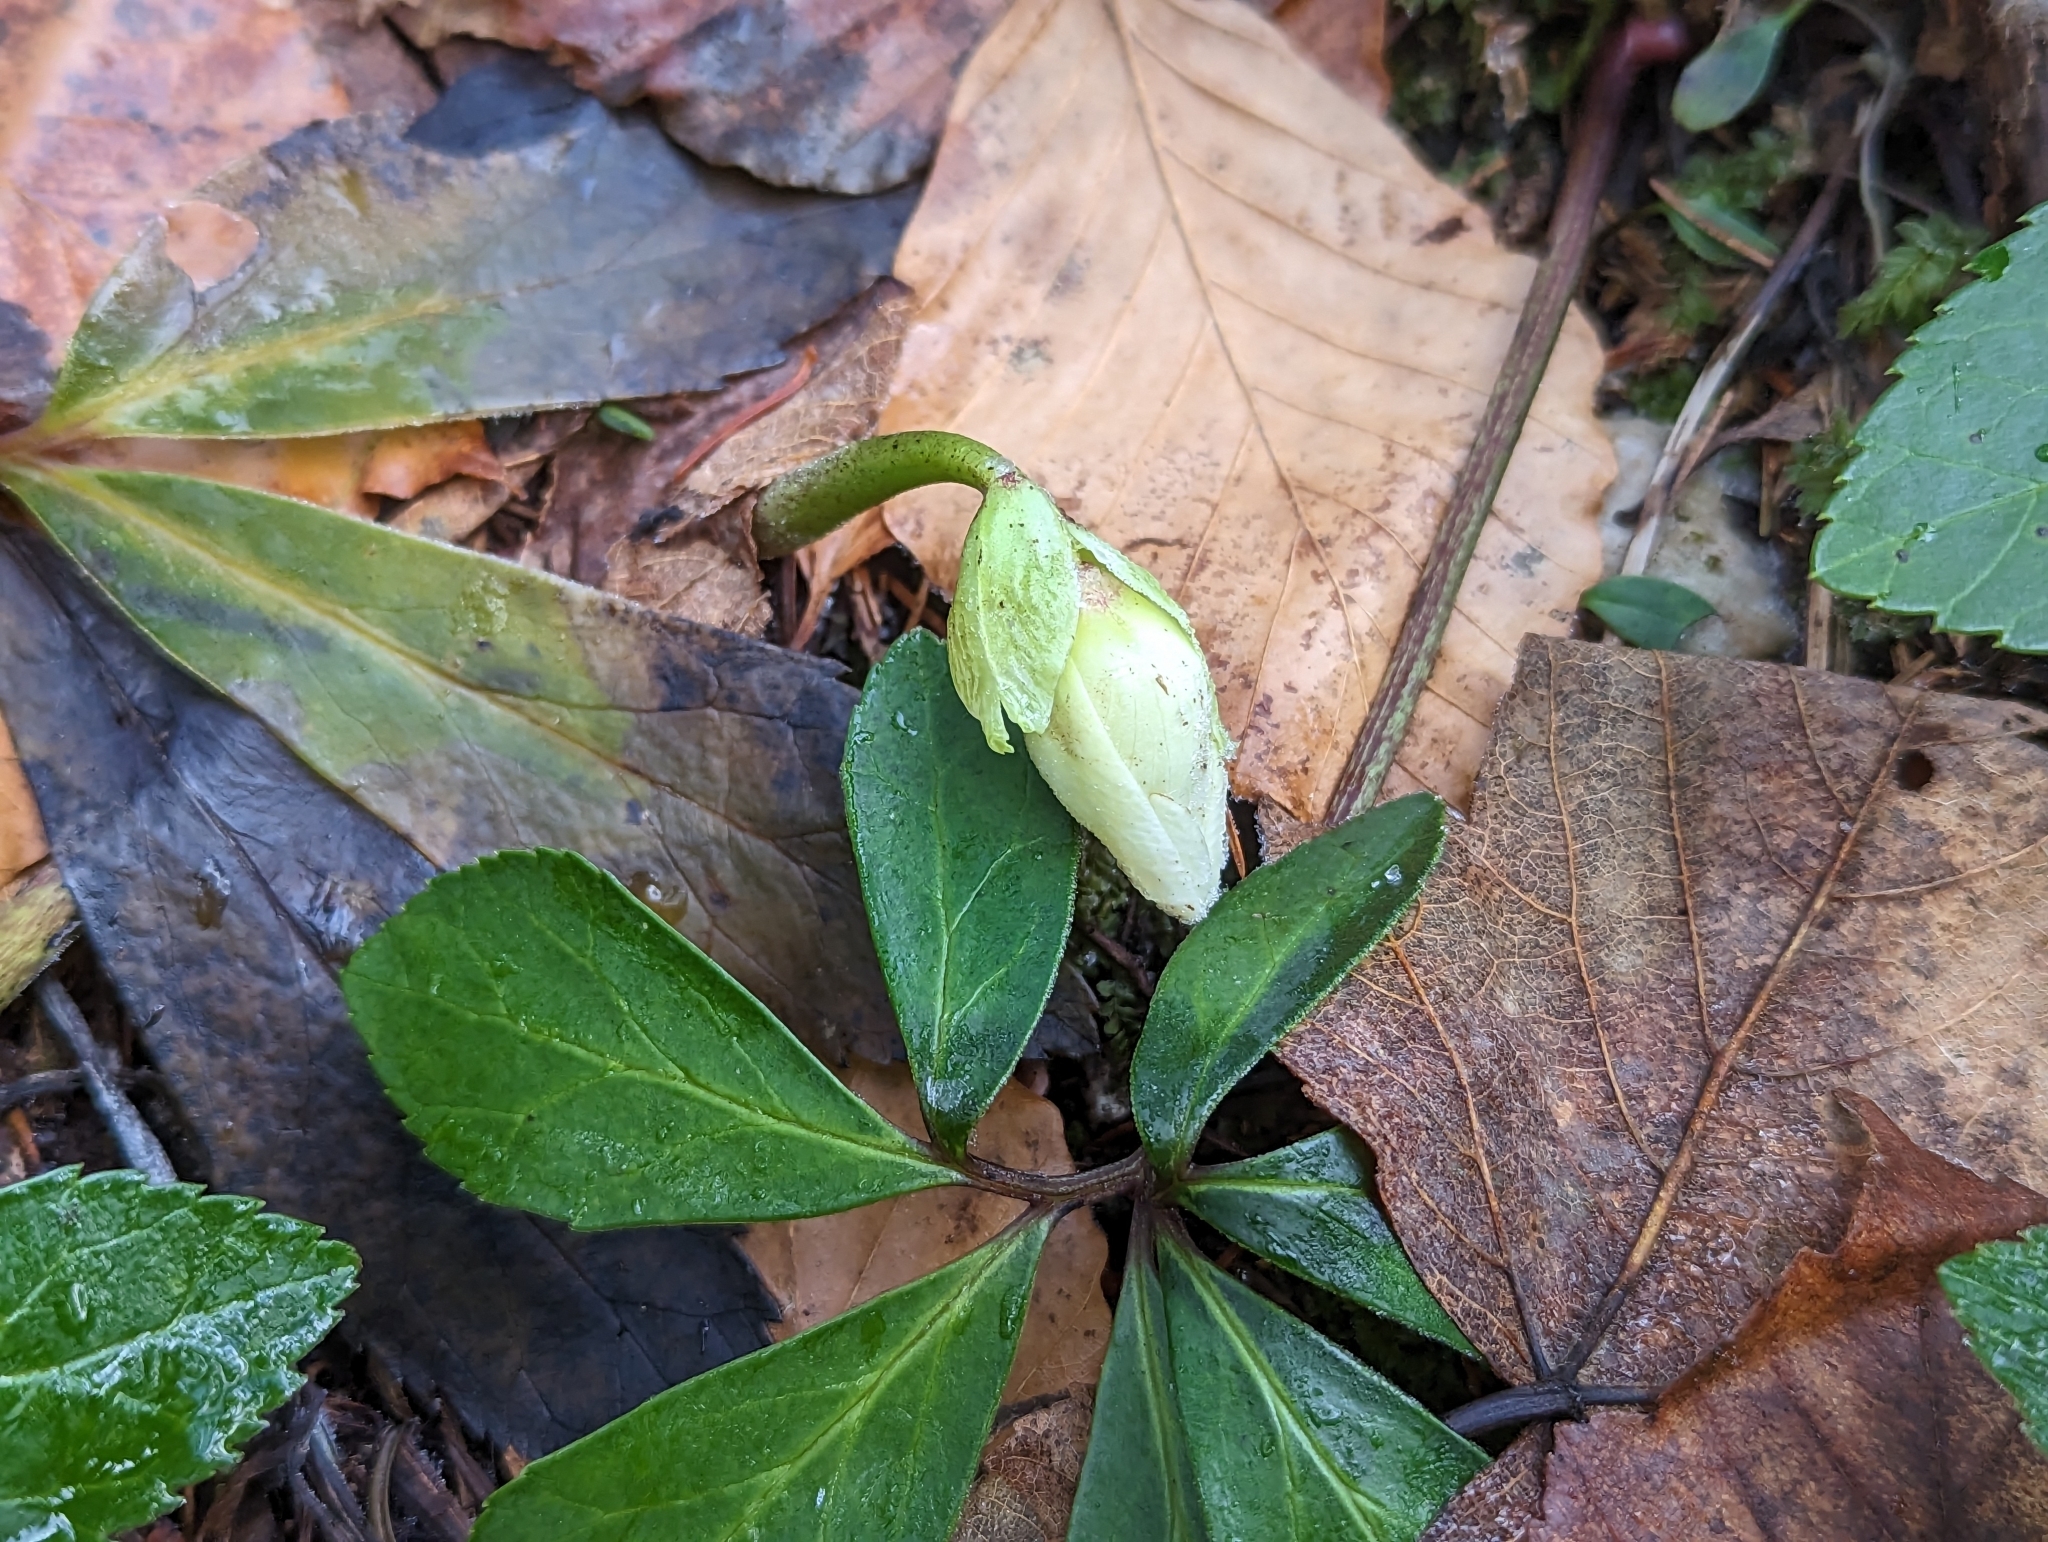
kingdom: Plantae
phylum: Tracheophyta
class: Magnoliopsida
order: Ranunculales
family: Ranunculaceae
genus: Helleborus
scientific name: Helleborus niger
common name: Black hellebore
